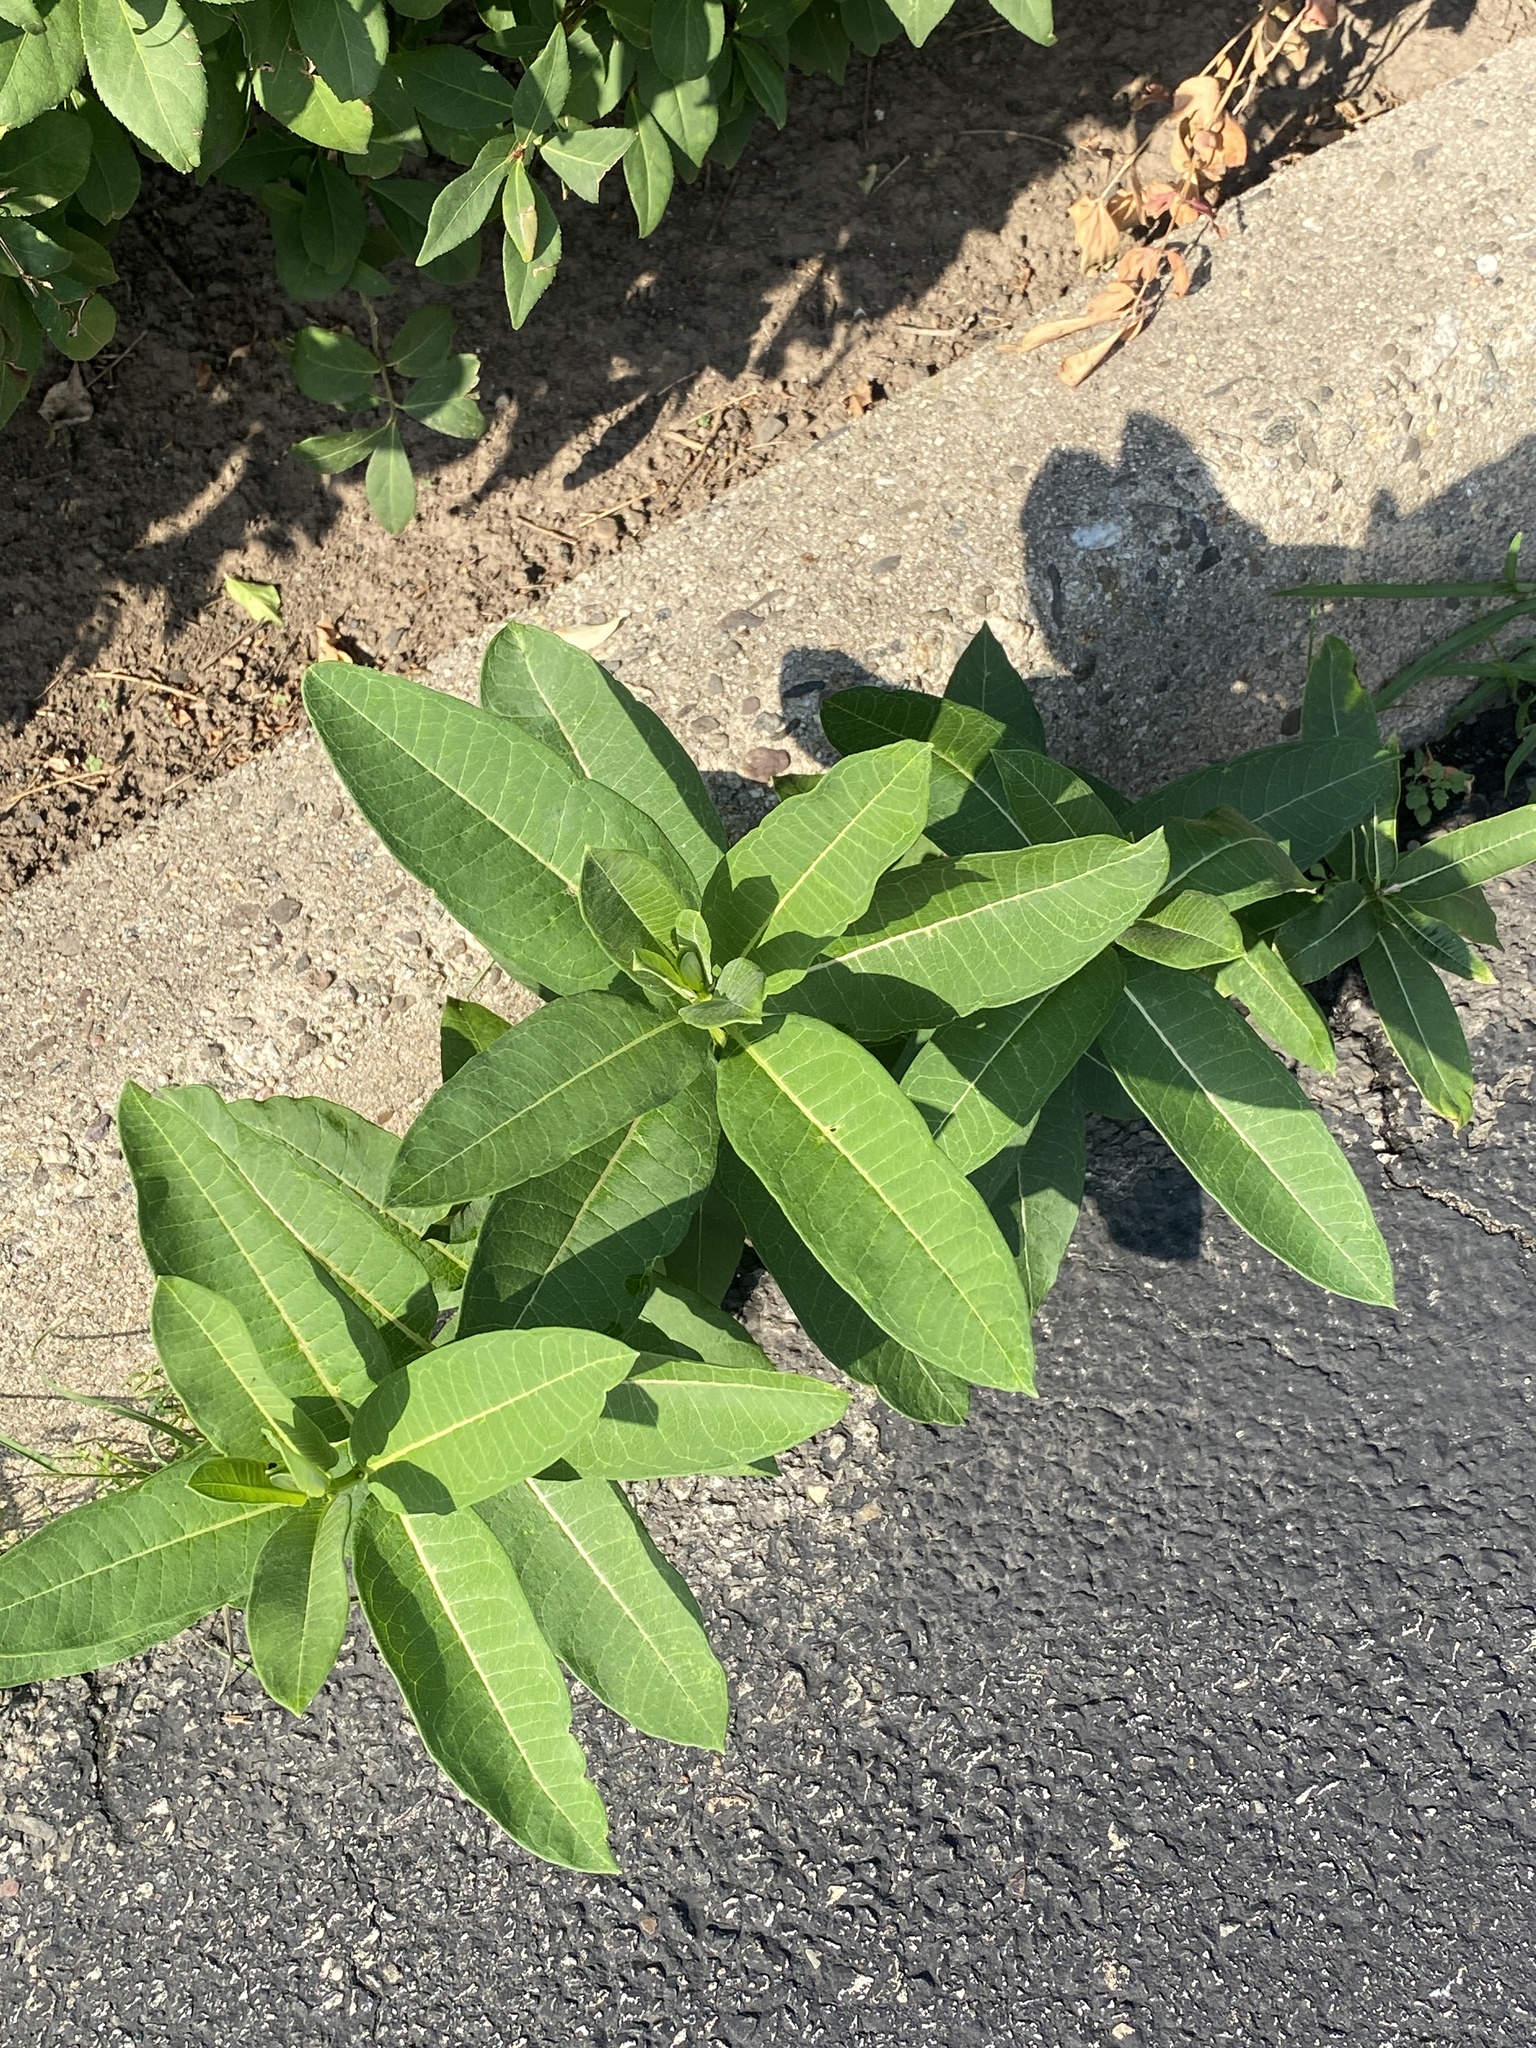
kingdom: Plantae
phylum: Tracheophyta
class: Magnoliopsida
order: Gentianales
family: Apocynaceae
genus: Asclepias
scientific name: Asclepias syriaca
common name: Common milkweed
